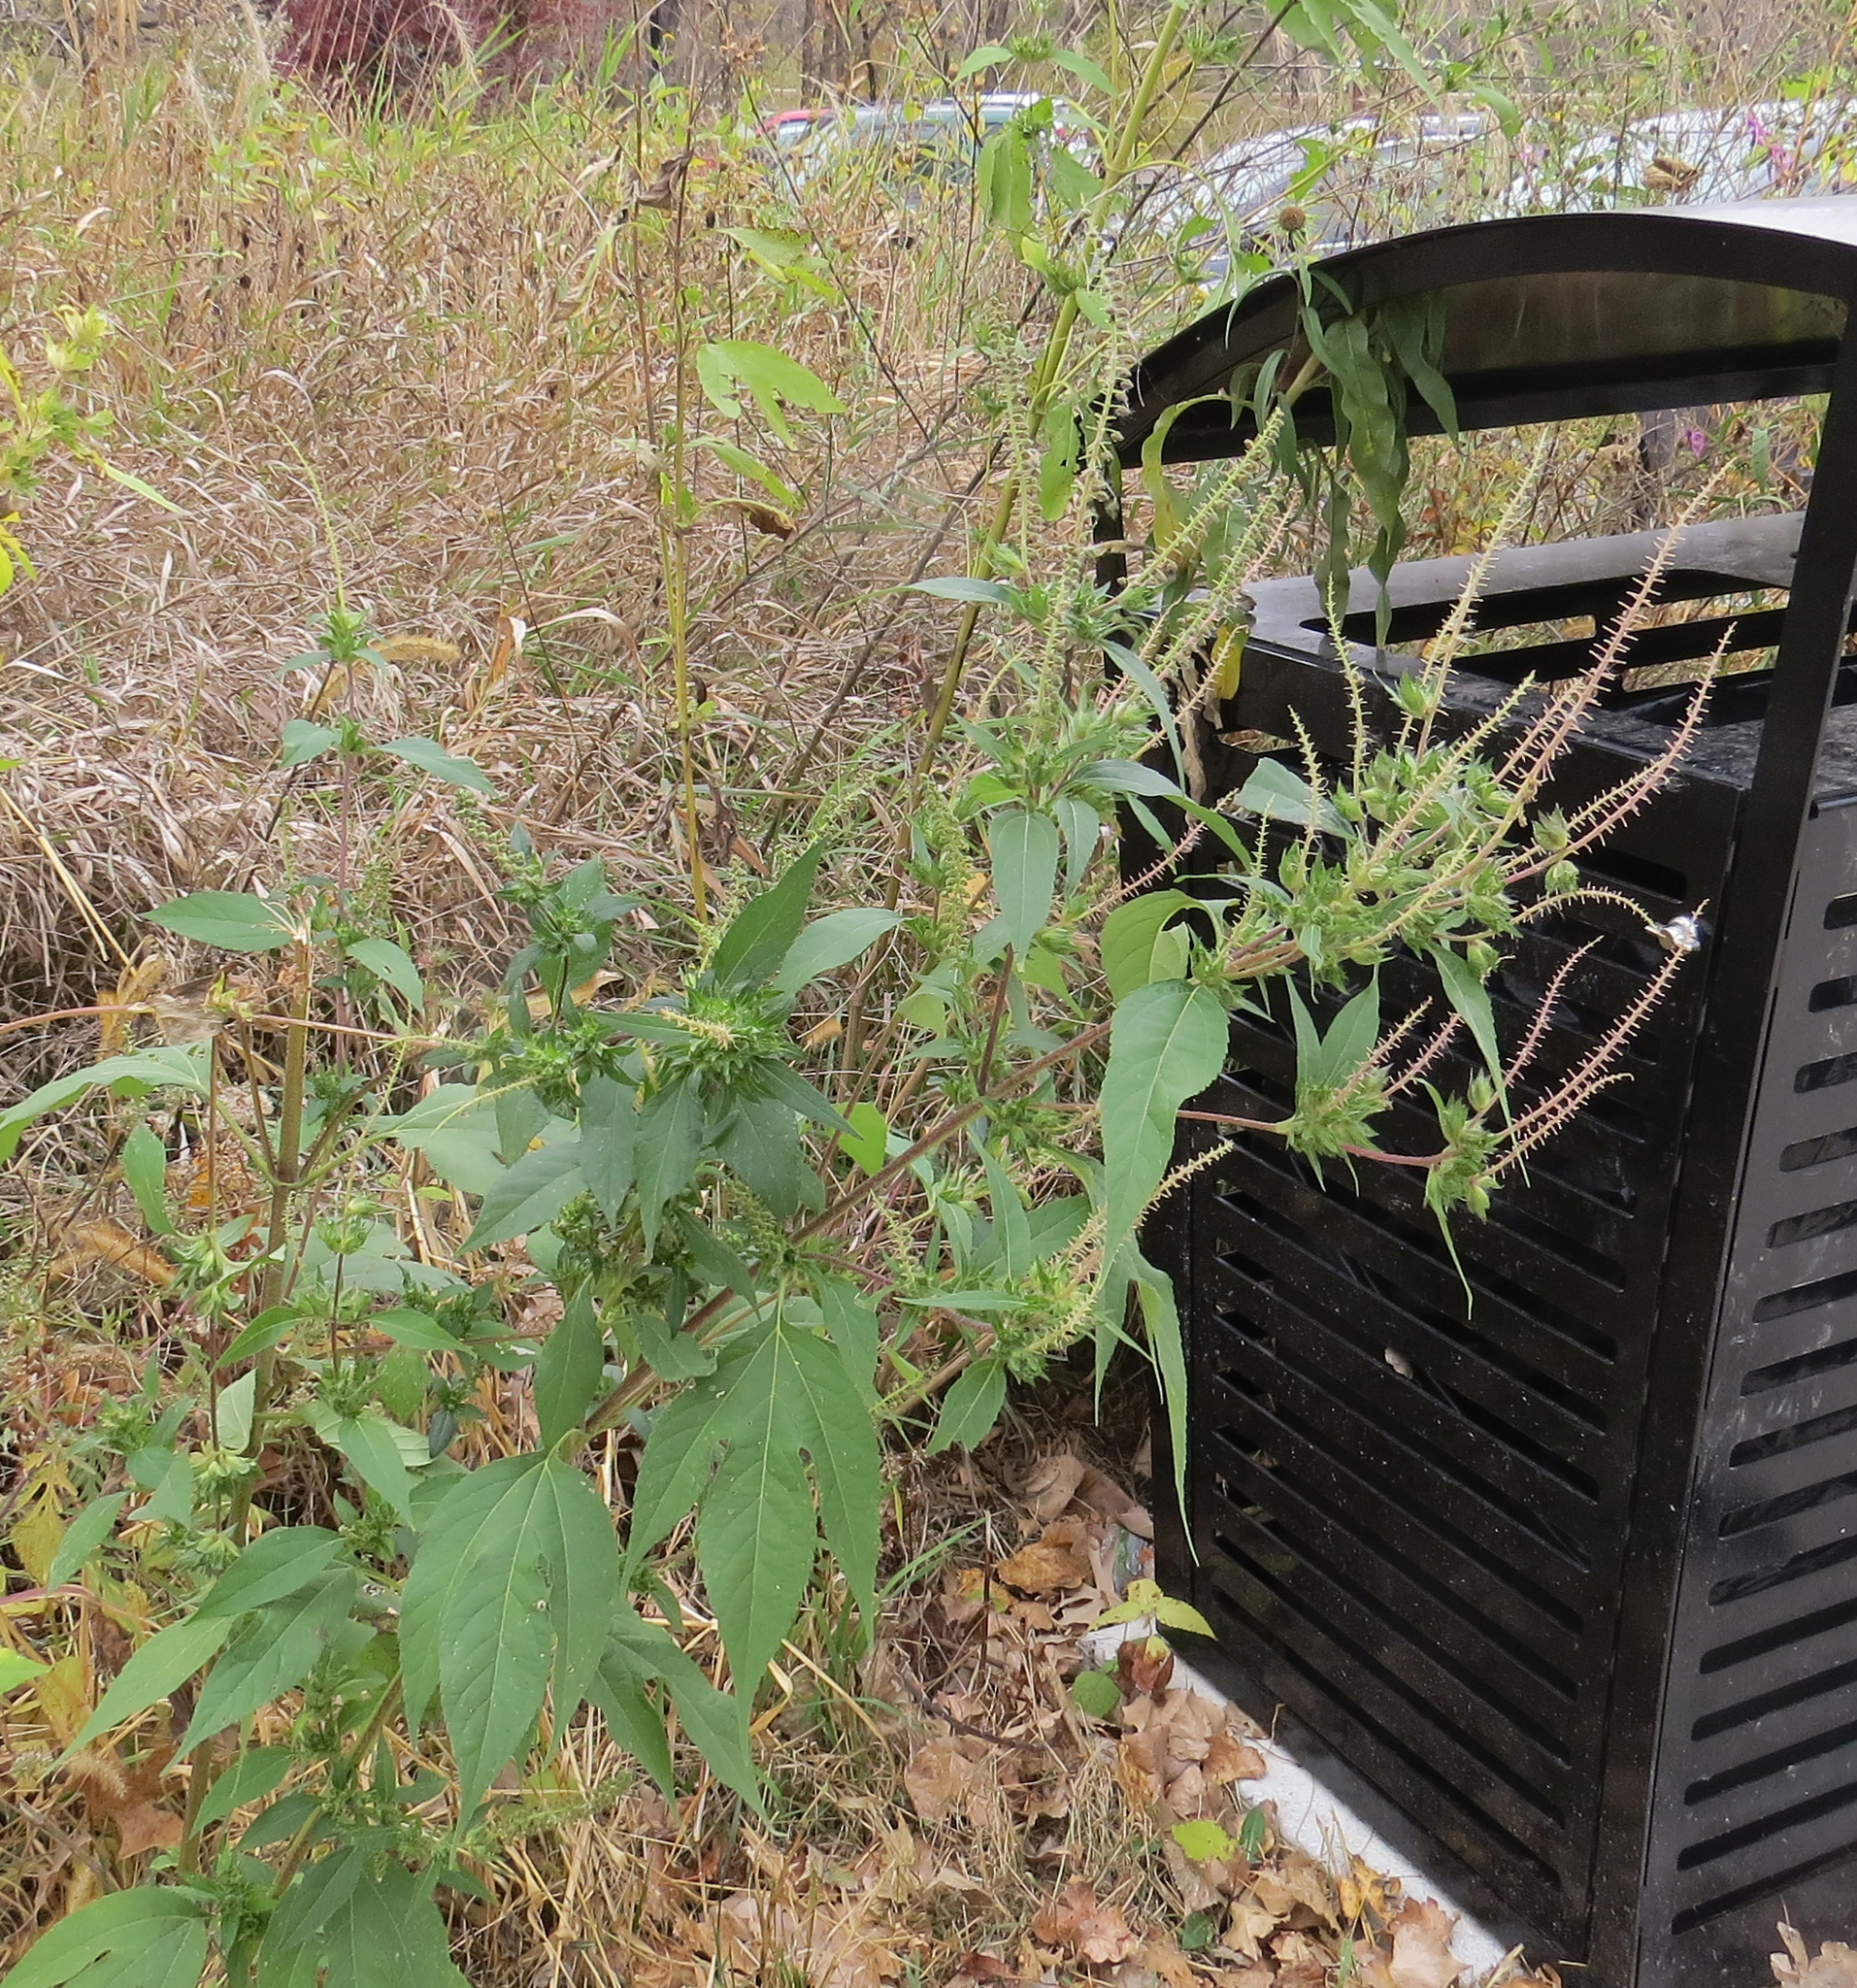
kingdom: Plantae
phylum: Tracheophyta
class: Magnoliopsida
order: Asterales
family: Asteraceae
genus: Ambrosia
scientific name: Ambrosia trifida
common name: Giant ragweed
